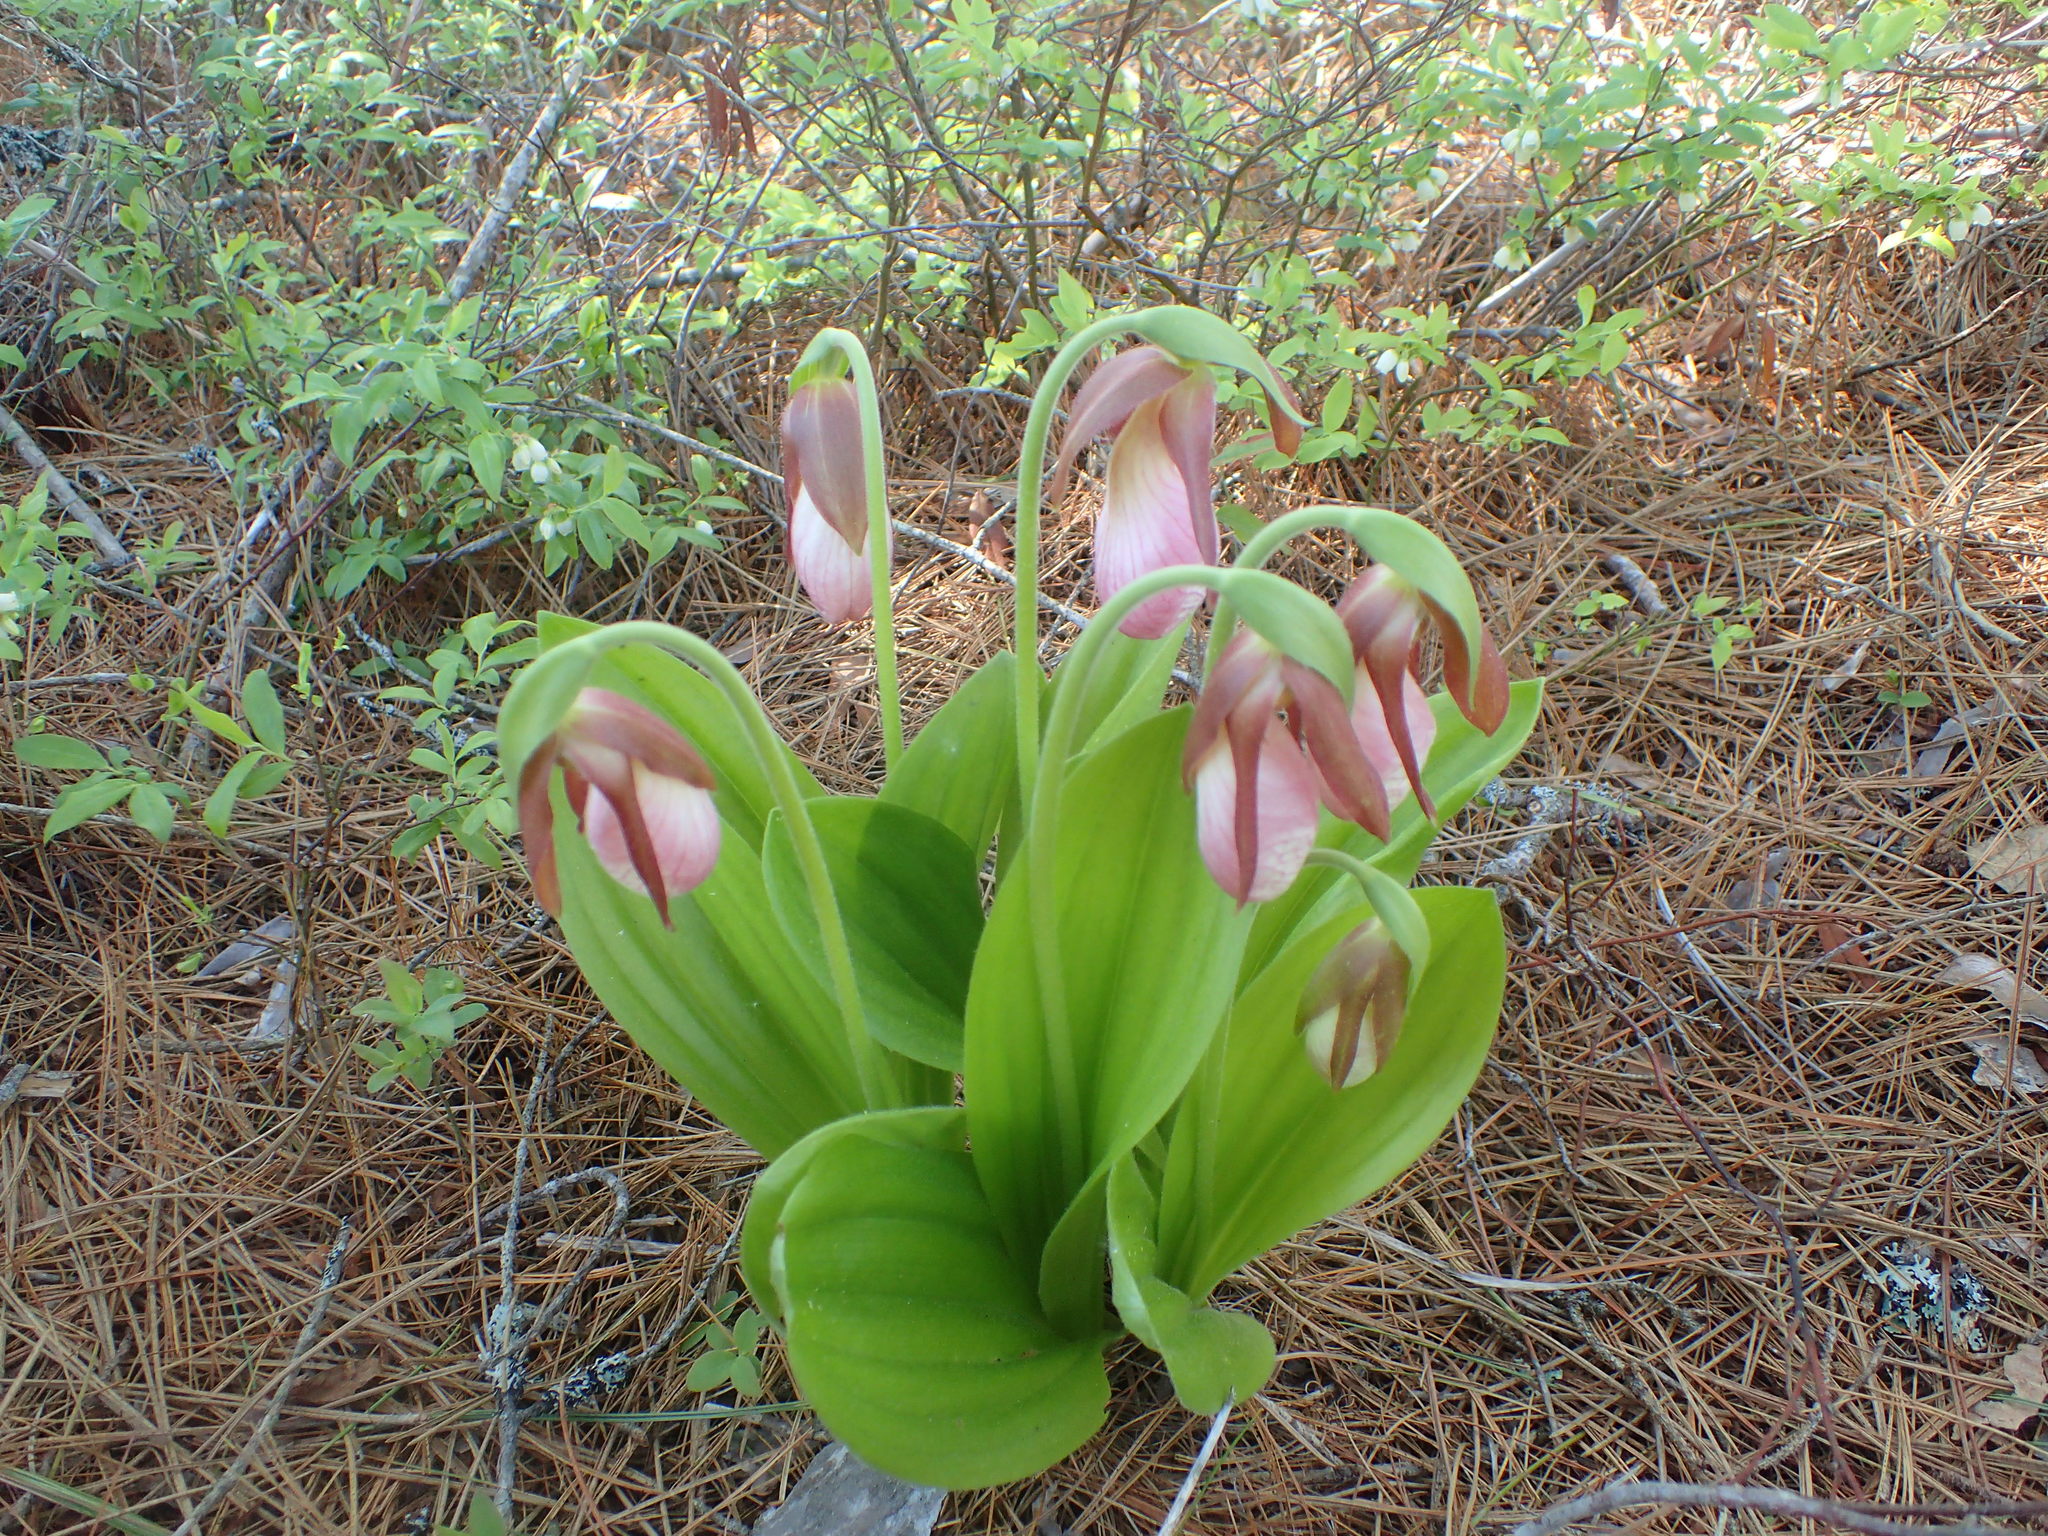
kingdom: Plantae
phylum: Tracheophyta
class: Liliopsida
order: Asparagales
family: Orchidaceae
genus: Cypripedium
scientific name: Cypripedium acaule
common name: Pink lady's-slipper
